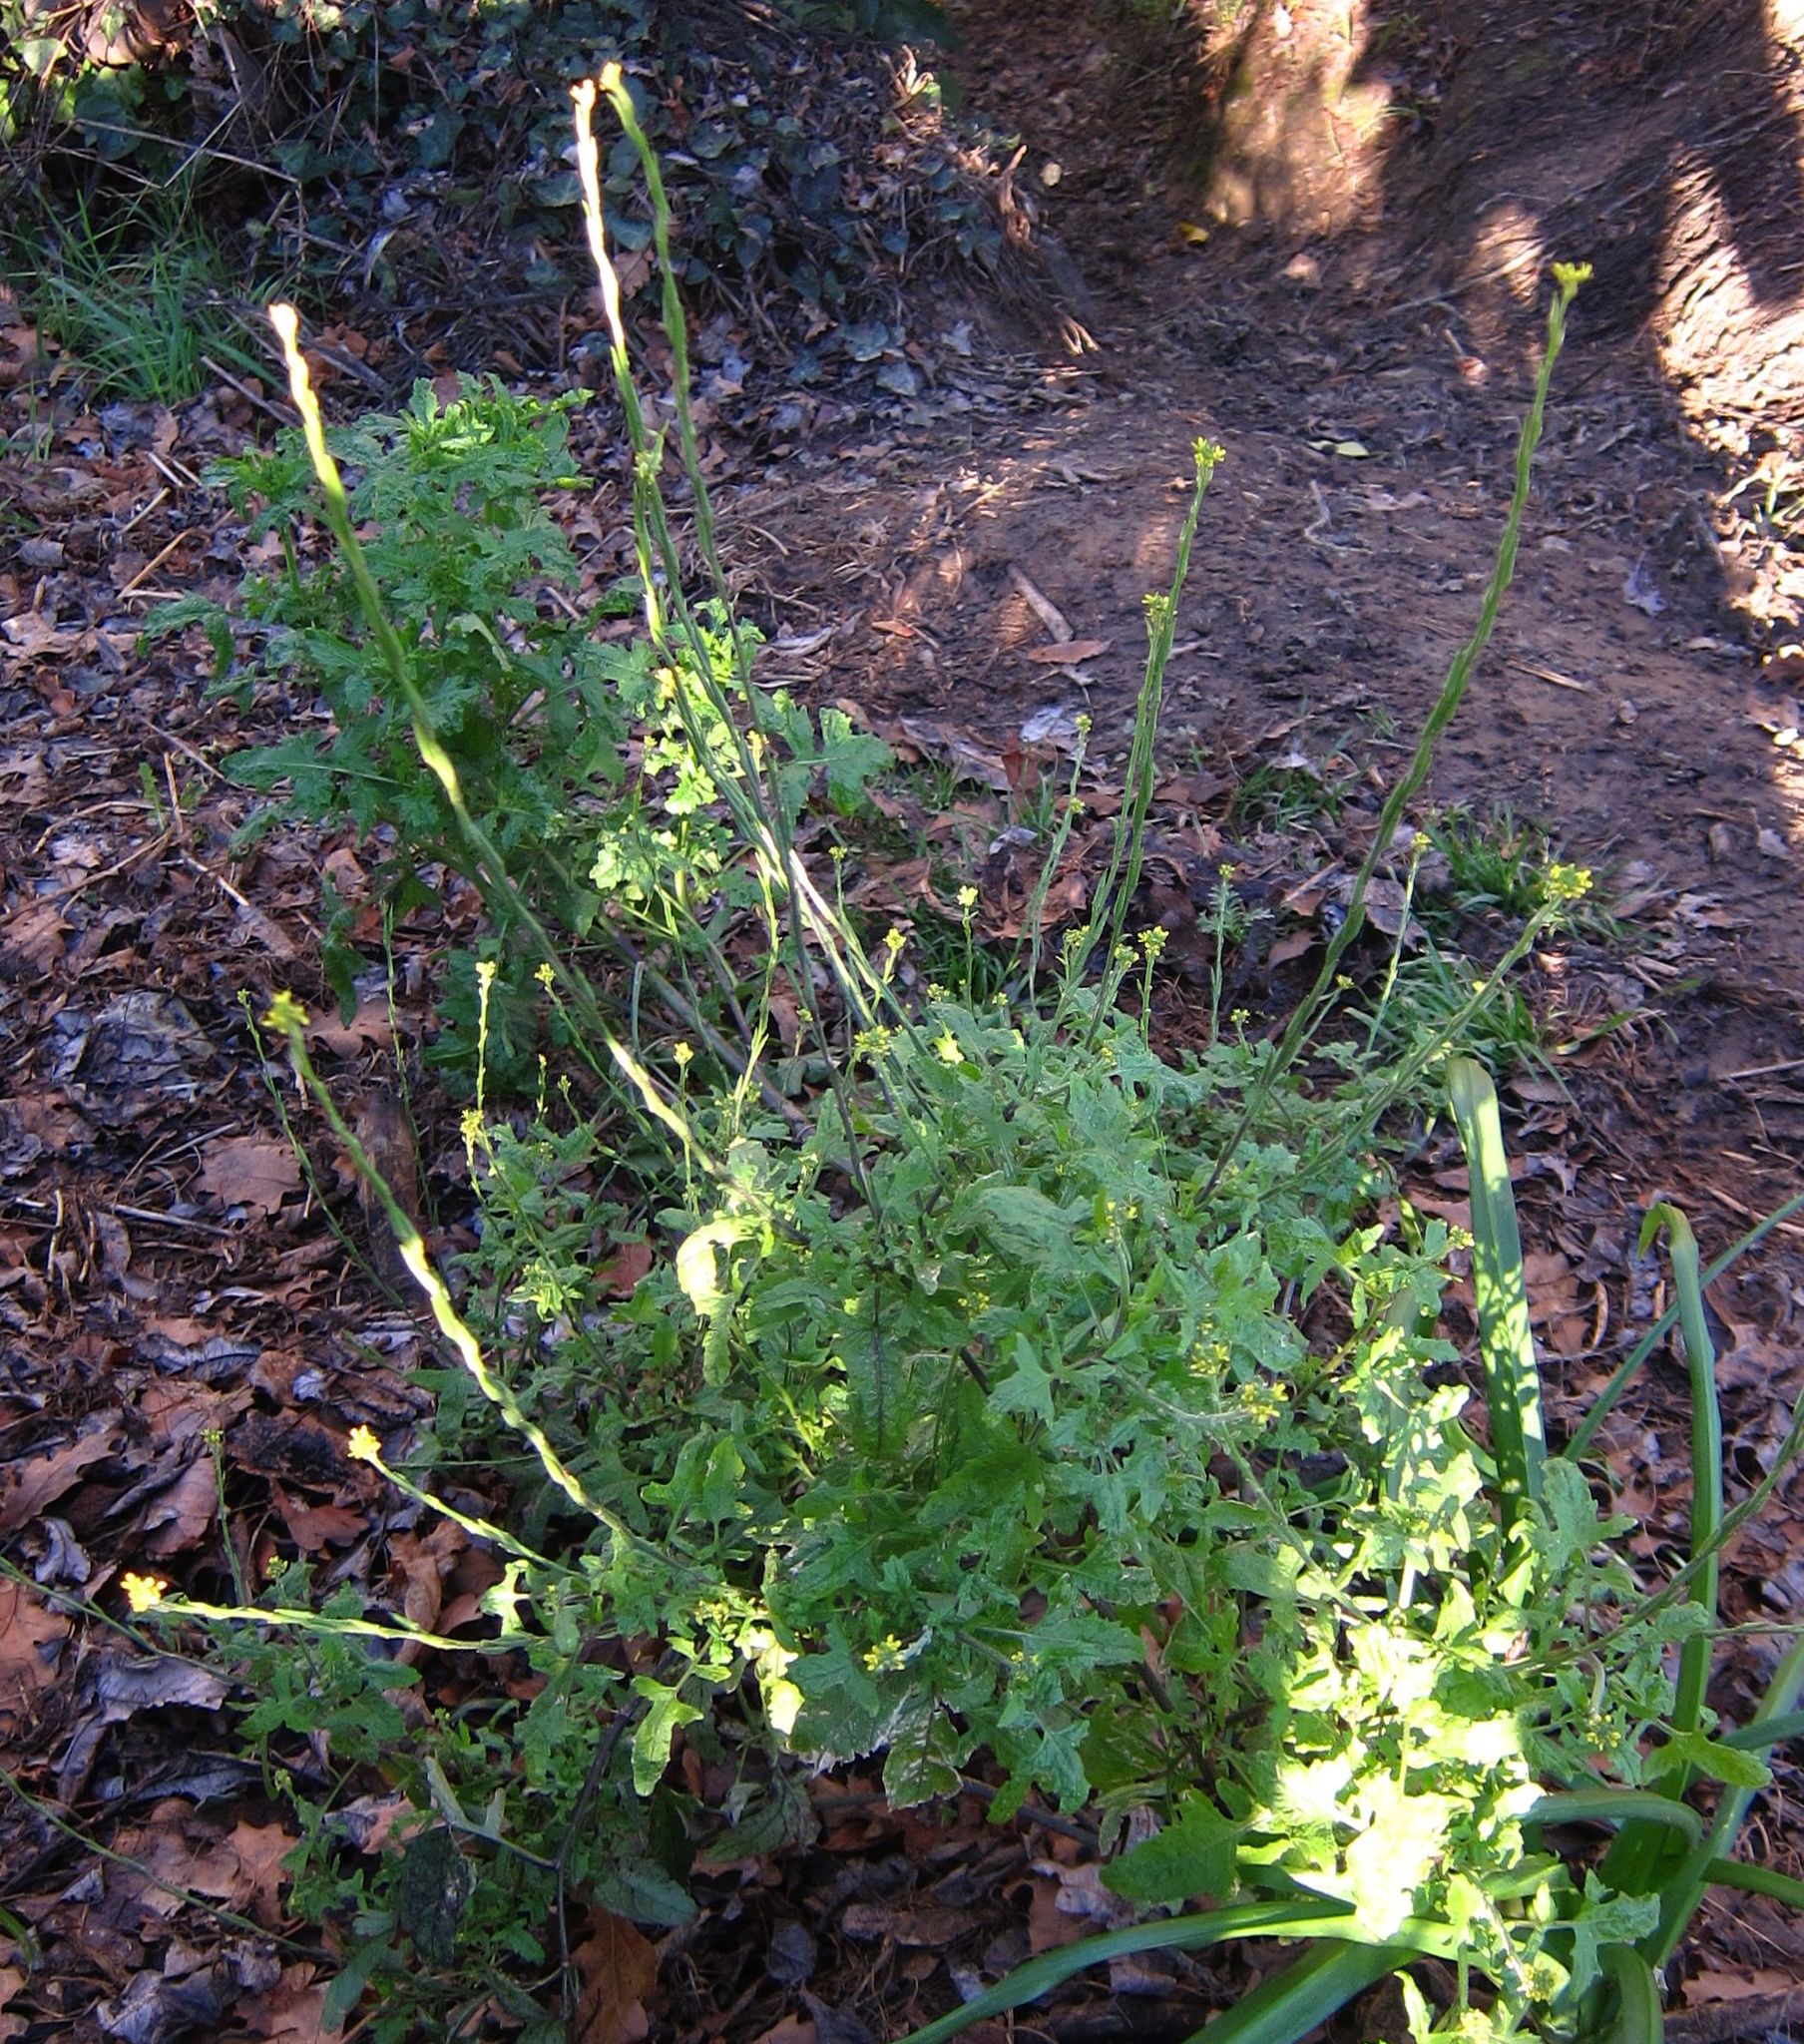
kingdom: Plantae
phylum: Tracheophyta
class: Magnoliopsida
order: Brassicales
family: Brassicaceae
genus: Sisymbrium
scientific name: Sisymbrium officinale
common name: Hedge mustard
